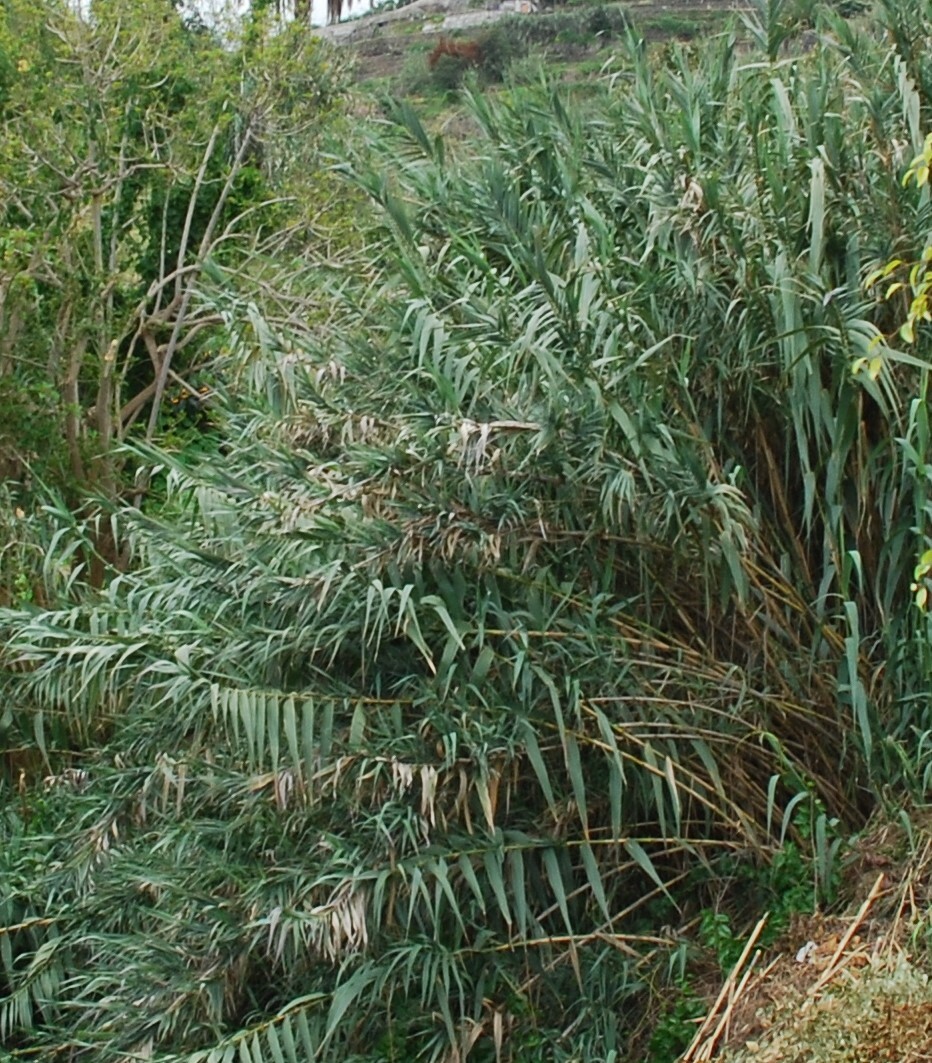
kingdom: Plantae
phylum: Tracheophyta
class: Liliopsida
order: Poales
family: Poaceae
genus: Arundo
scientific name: Arundo donax
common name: Giant reed
